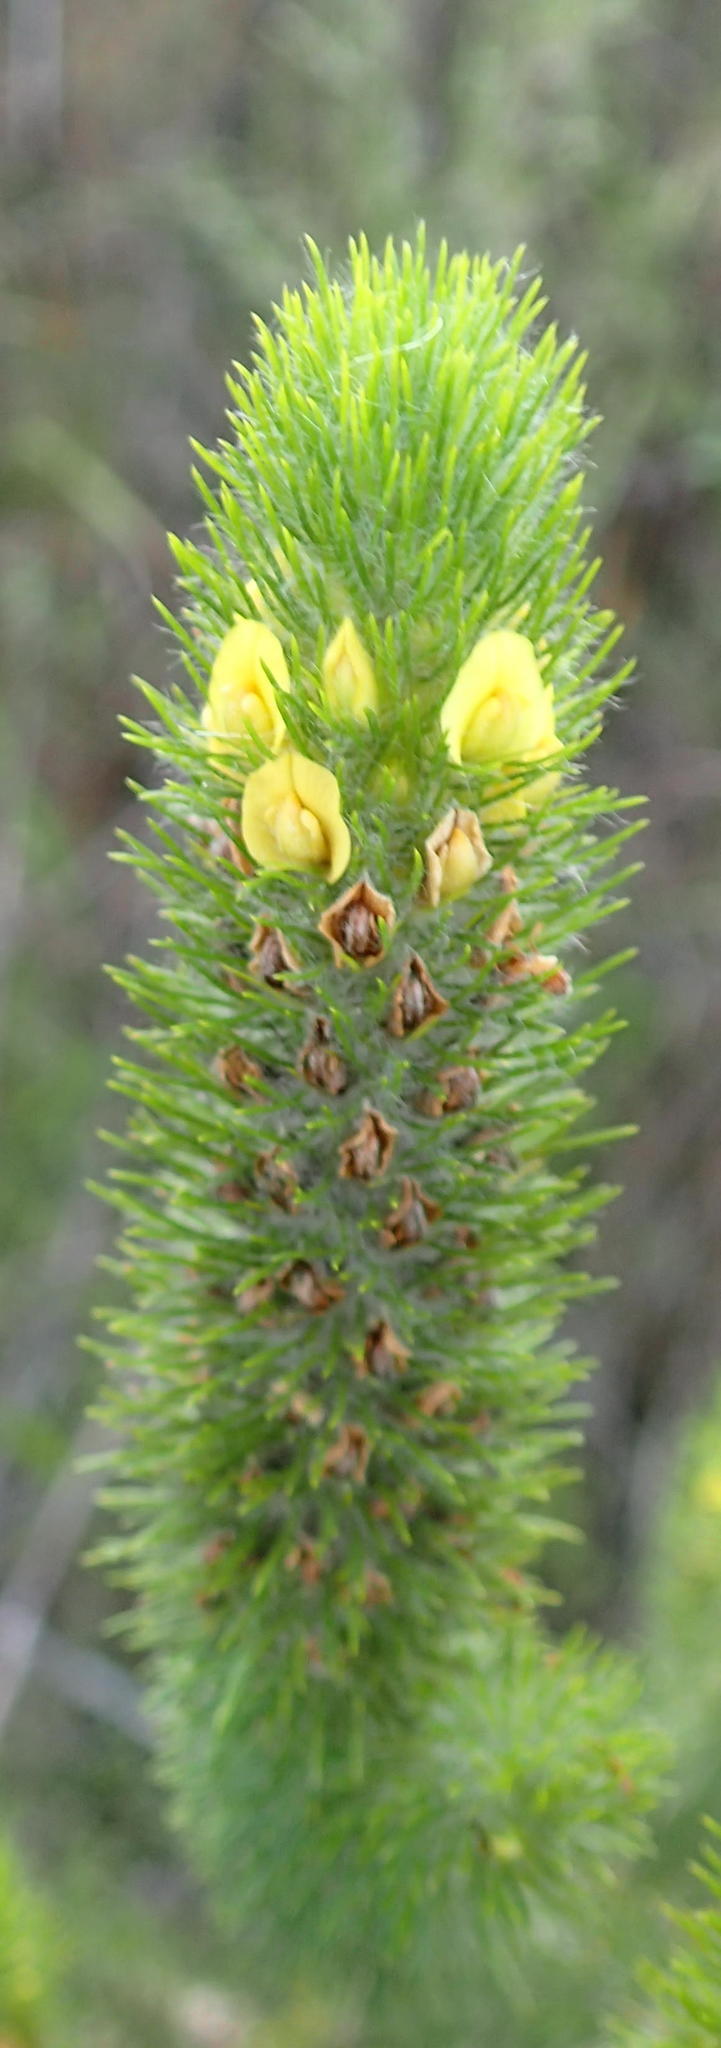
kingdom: Plantae
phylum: Tracheophyta
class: Magnoliopsida
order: Fabales
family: Fabaceae
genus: Aspalathus
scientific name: Aspalathus alopecurus
